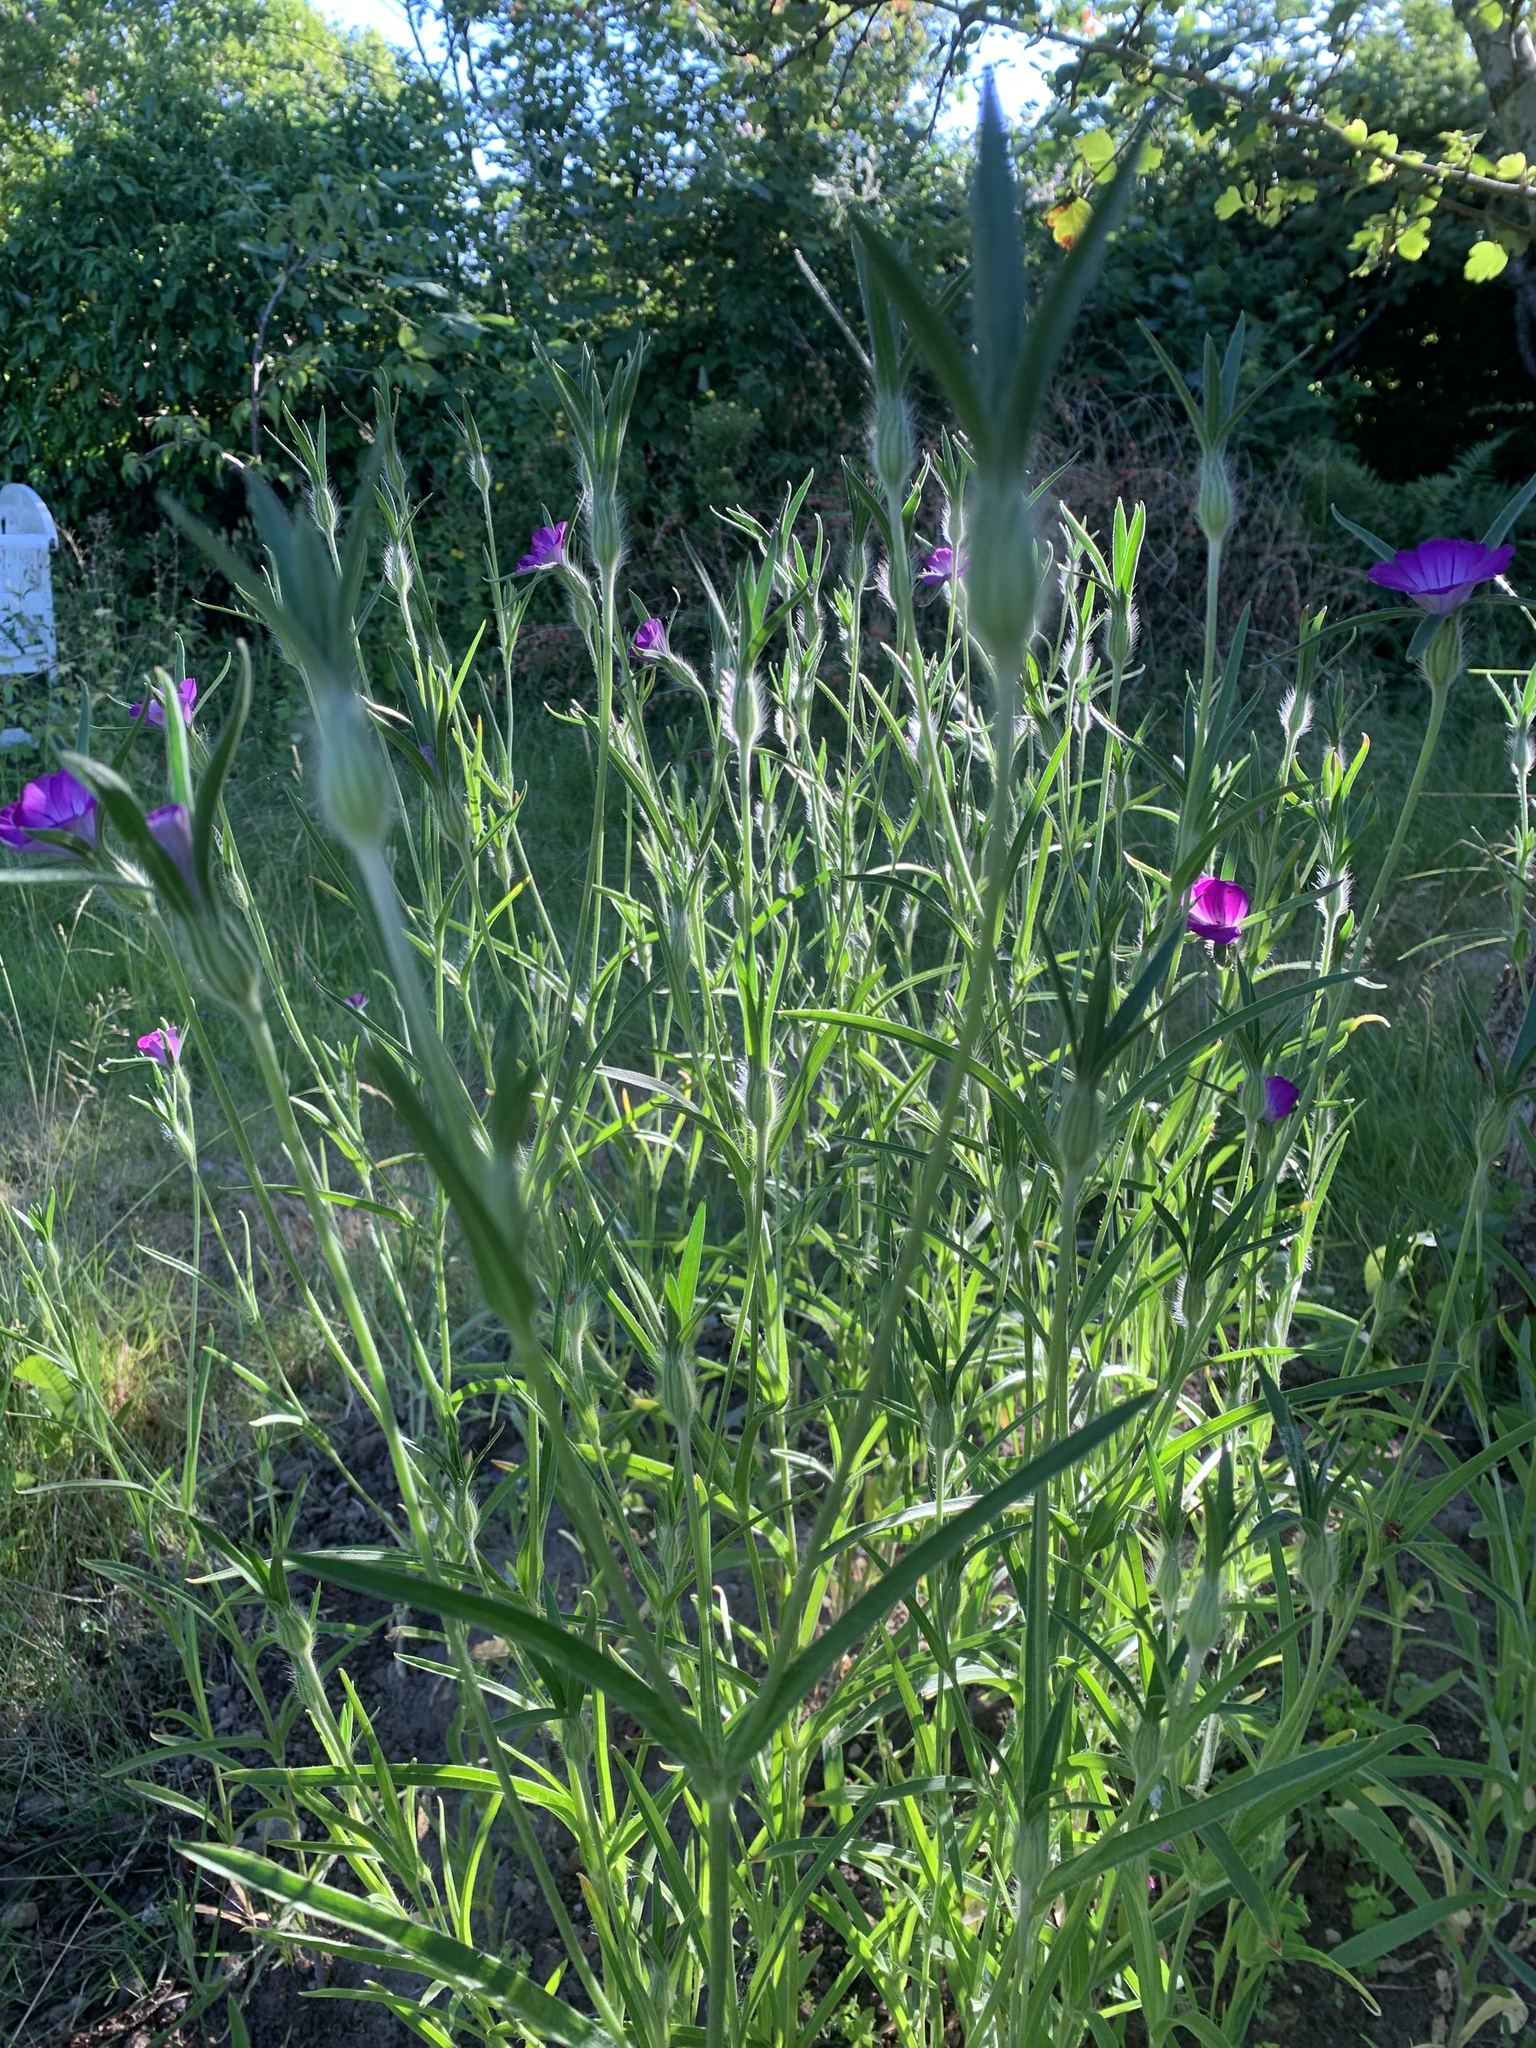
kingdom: Plantae
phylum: Tracheophyta
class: Magnoliopsida
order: Caryophyllales
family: Caryophyllaceae
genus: Agrostemma
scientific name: Agrostemma githago
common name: Common corncockle
